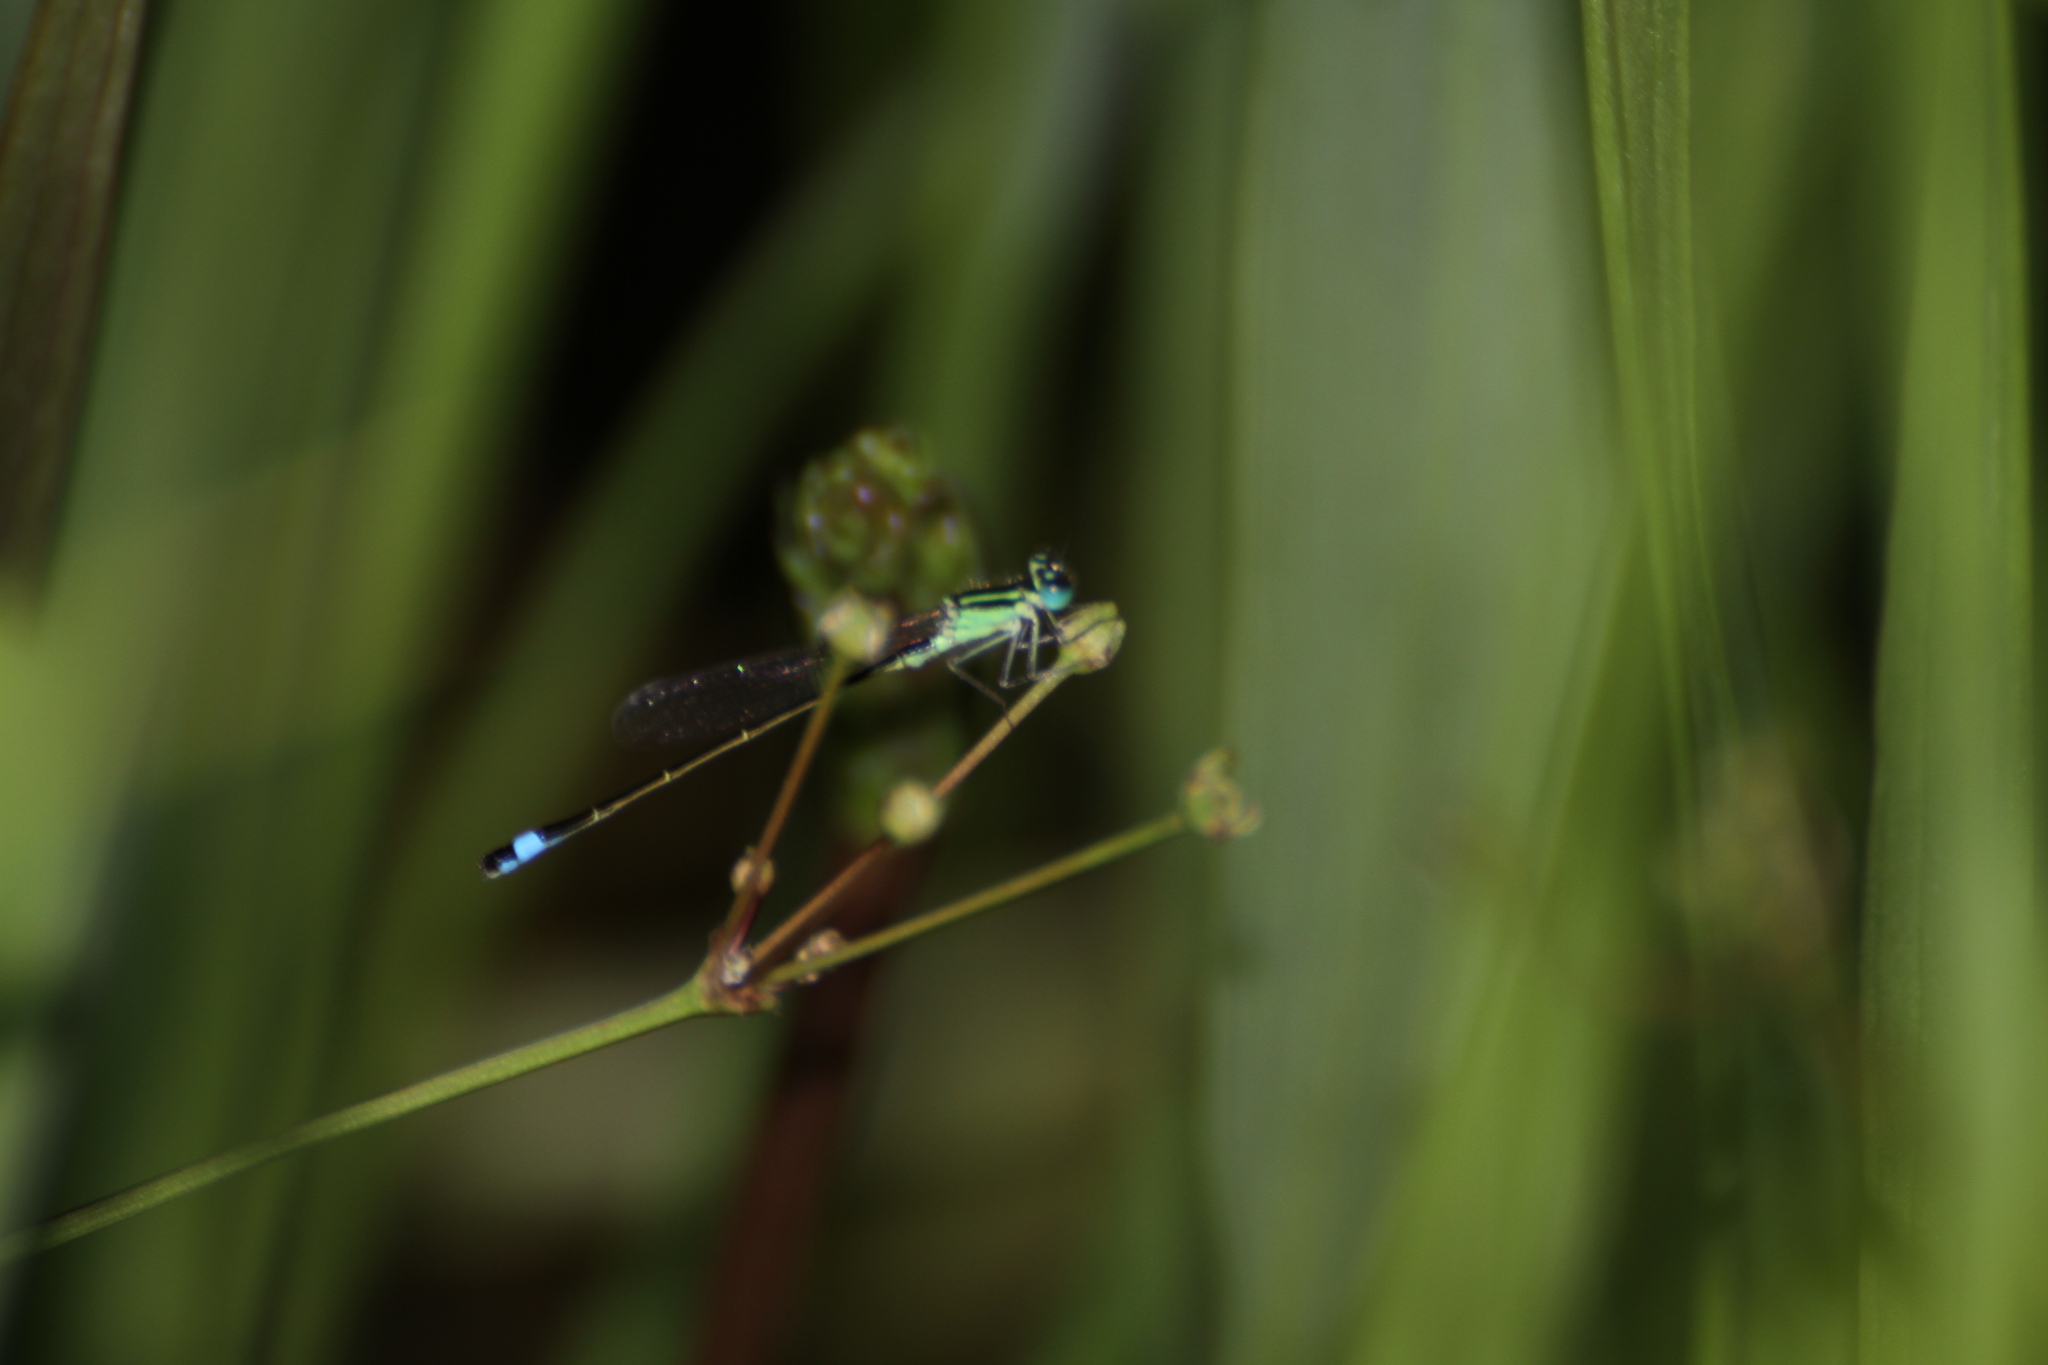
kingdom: Animalia
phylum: Arthropoda
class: Insecta
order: Odonata
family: Coenagrionidae
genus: Ischnura
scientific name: Ischnura elegans
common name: Blue-tailed damselfly
